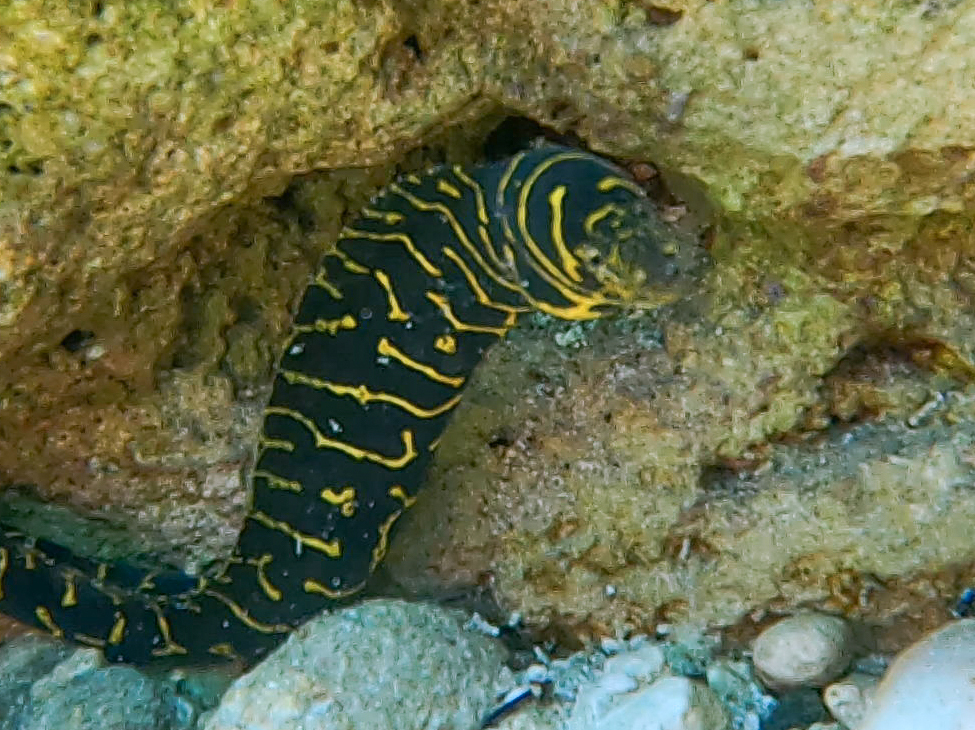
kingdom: Animalia
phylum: Chordata
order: Anguilliformes
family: Muraenidae
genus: Echidna
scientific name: Echidna catenata
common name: Chain moray
